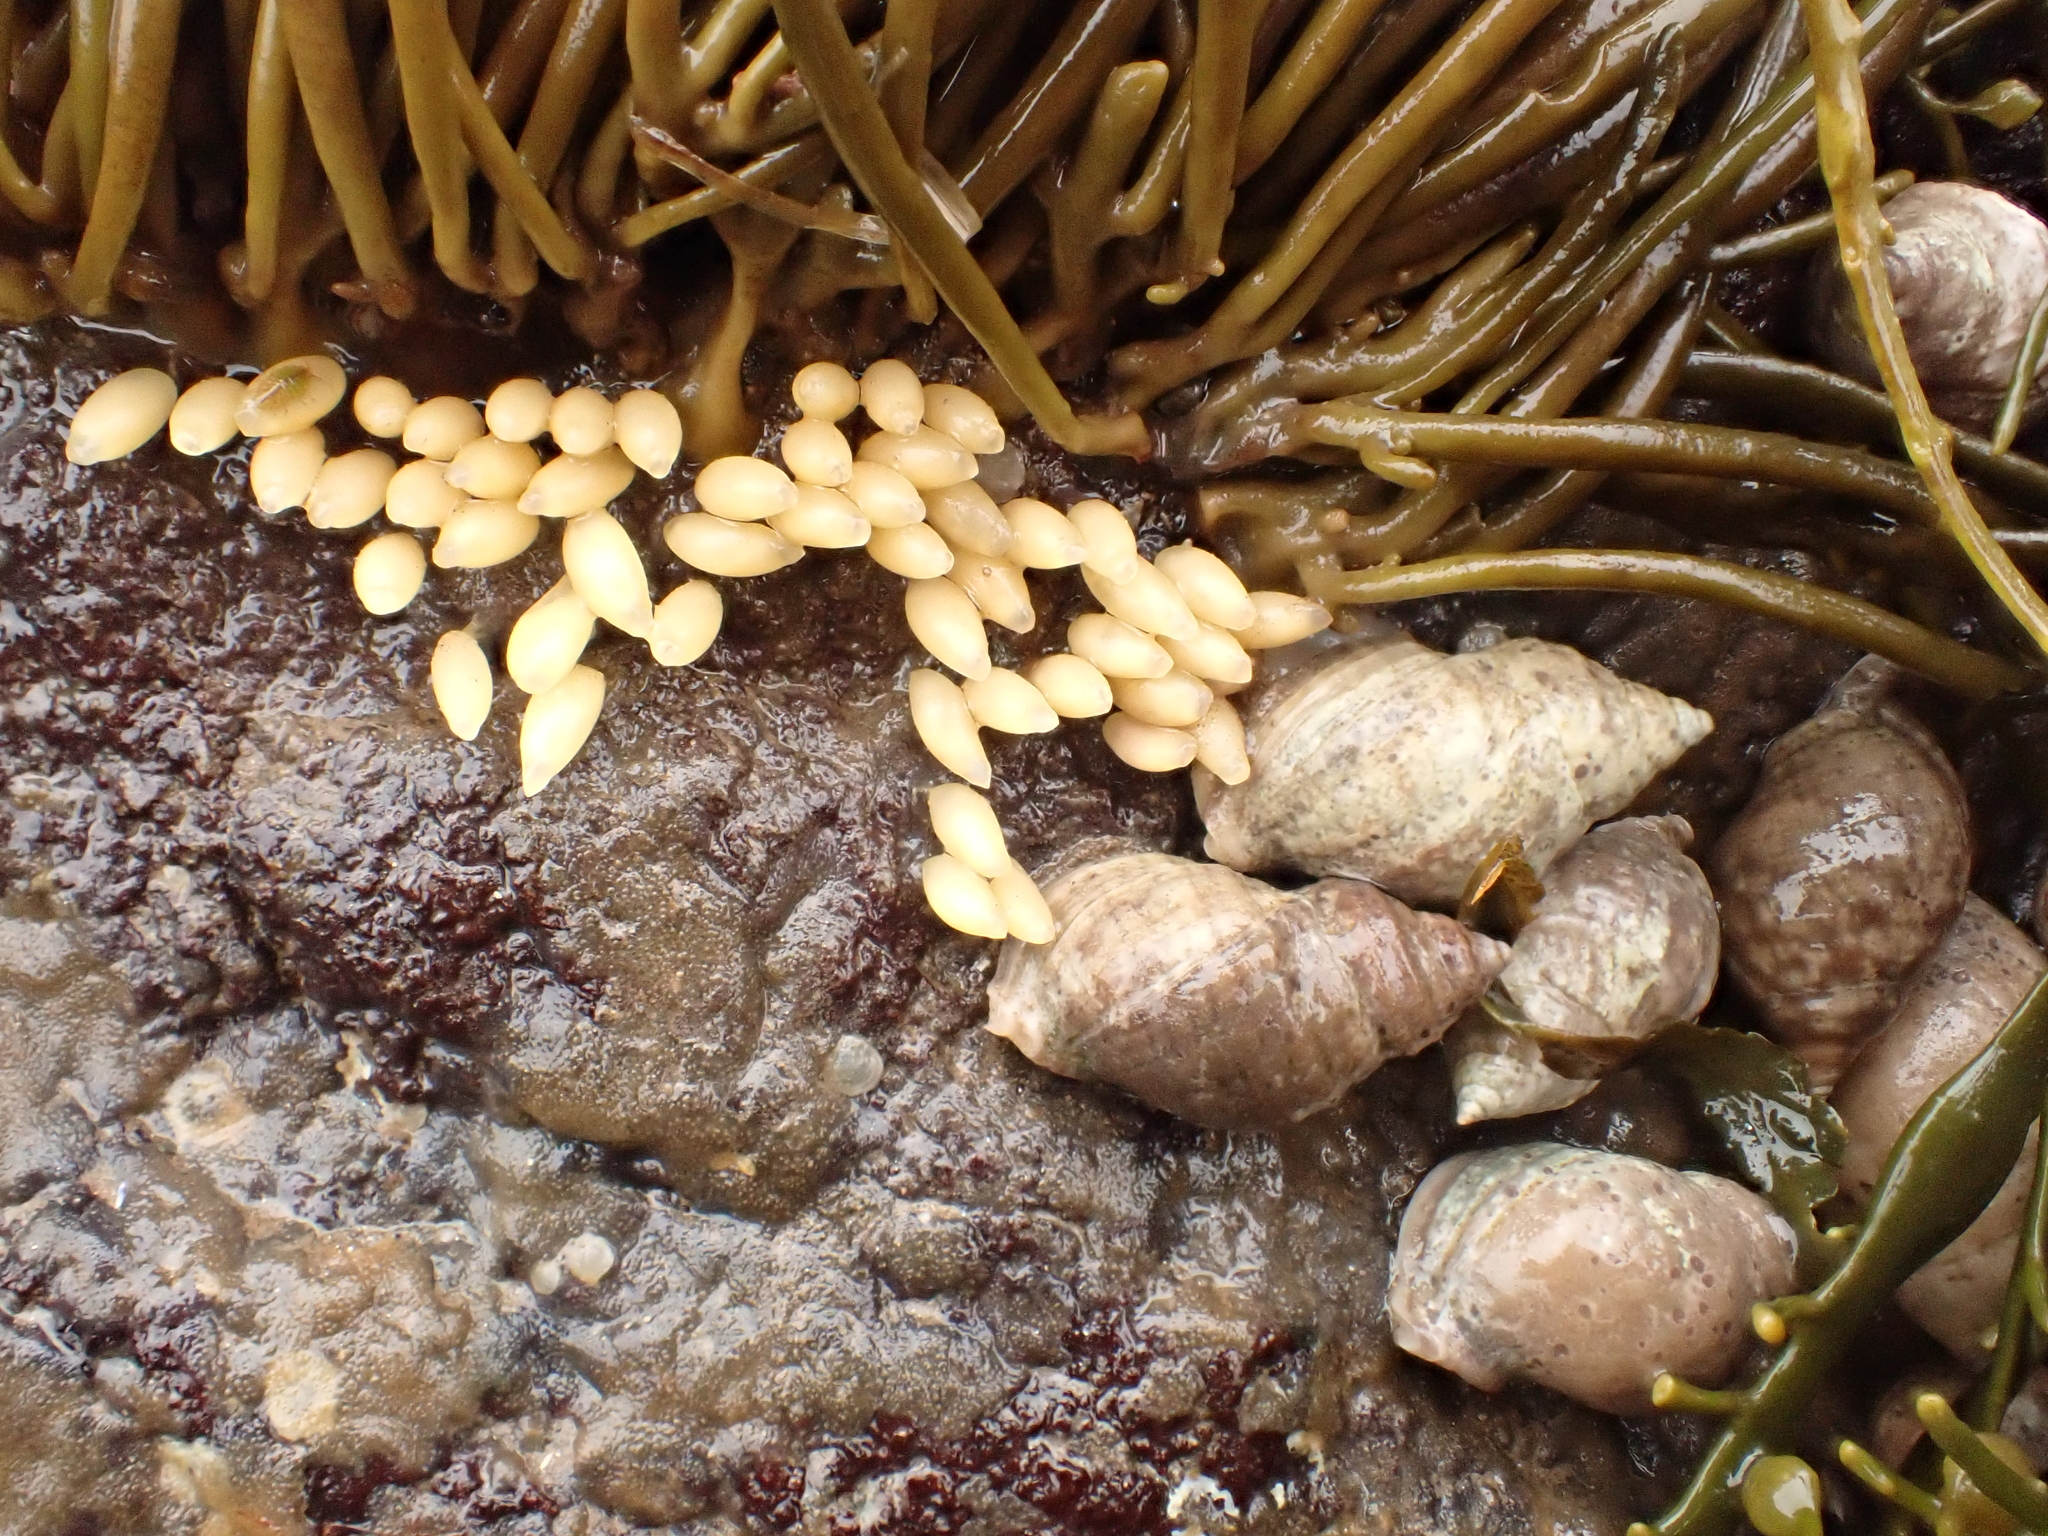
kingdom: Animalia
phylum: Mollusca
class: Gastropoda
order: Neogastropoda
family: Muricidae
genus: Nucella
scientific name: Nucella lapillus
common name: Dog whelk
